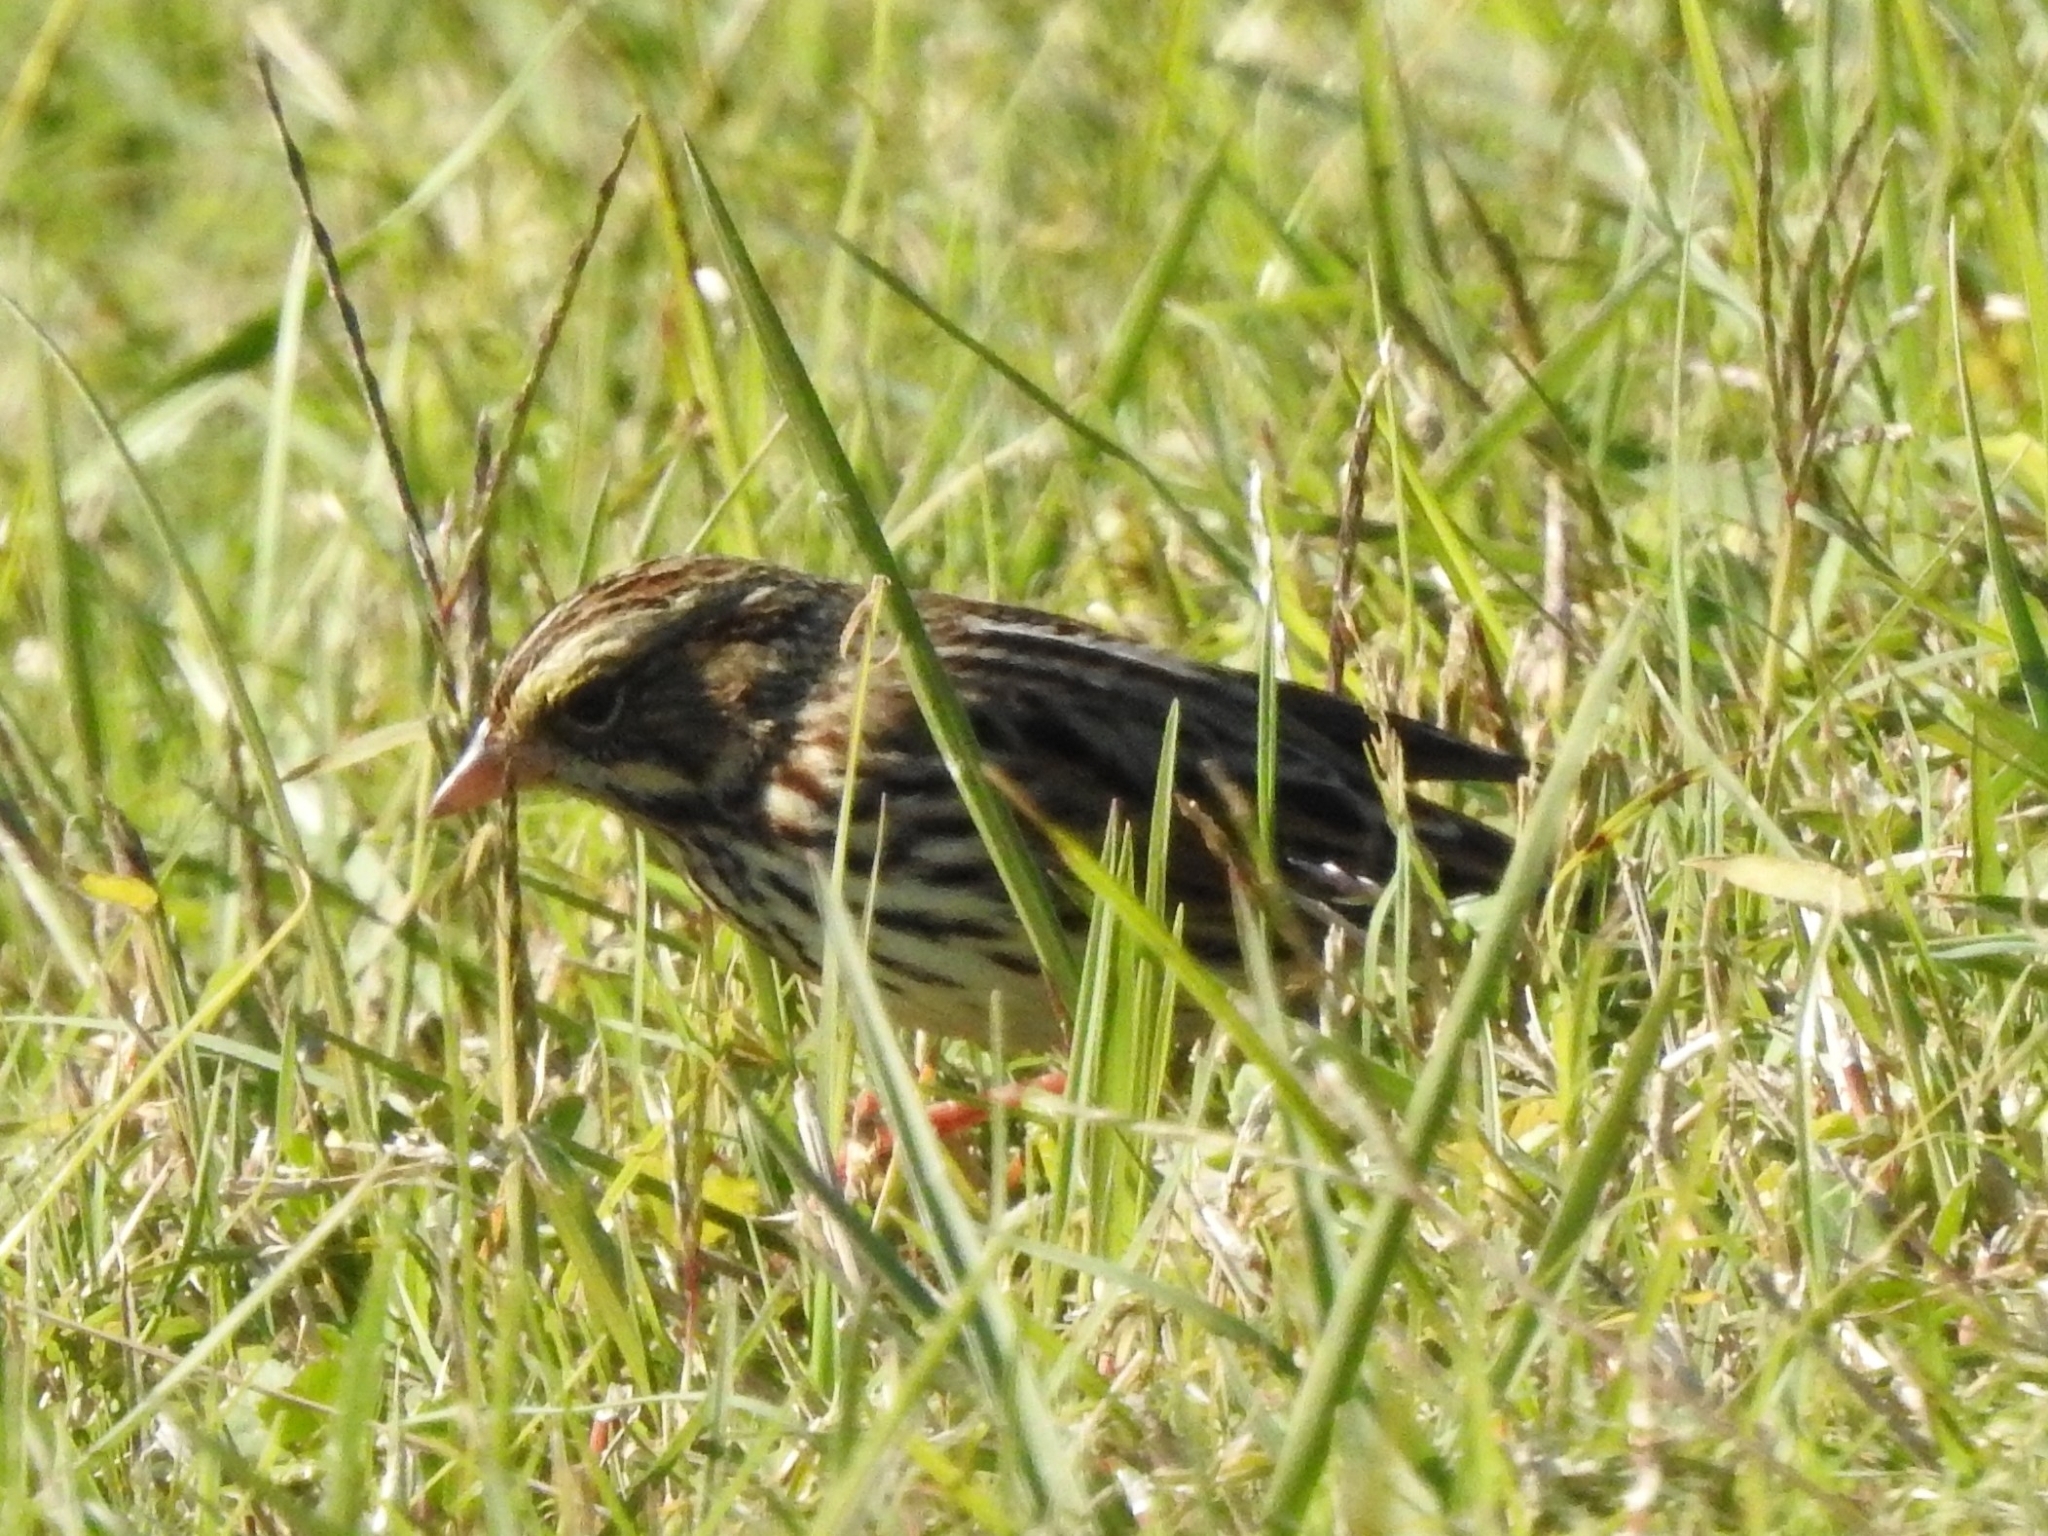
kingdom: Animalia
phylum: Chordata
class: Aves
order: Passeriformes
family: Passerellidae
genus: Passerculus
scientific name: Passerculus sandwichensis
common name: Savannah sparrow
